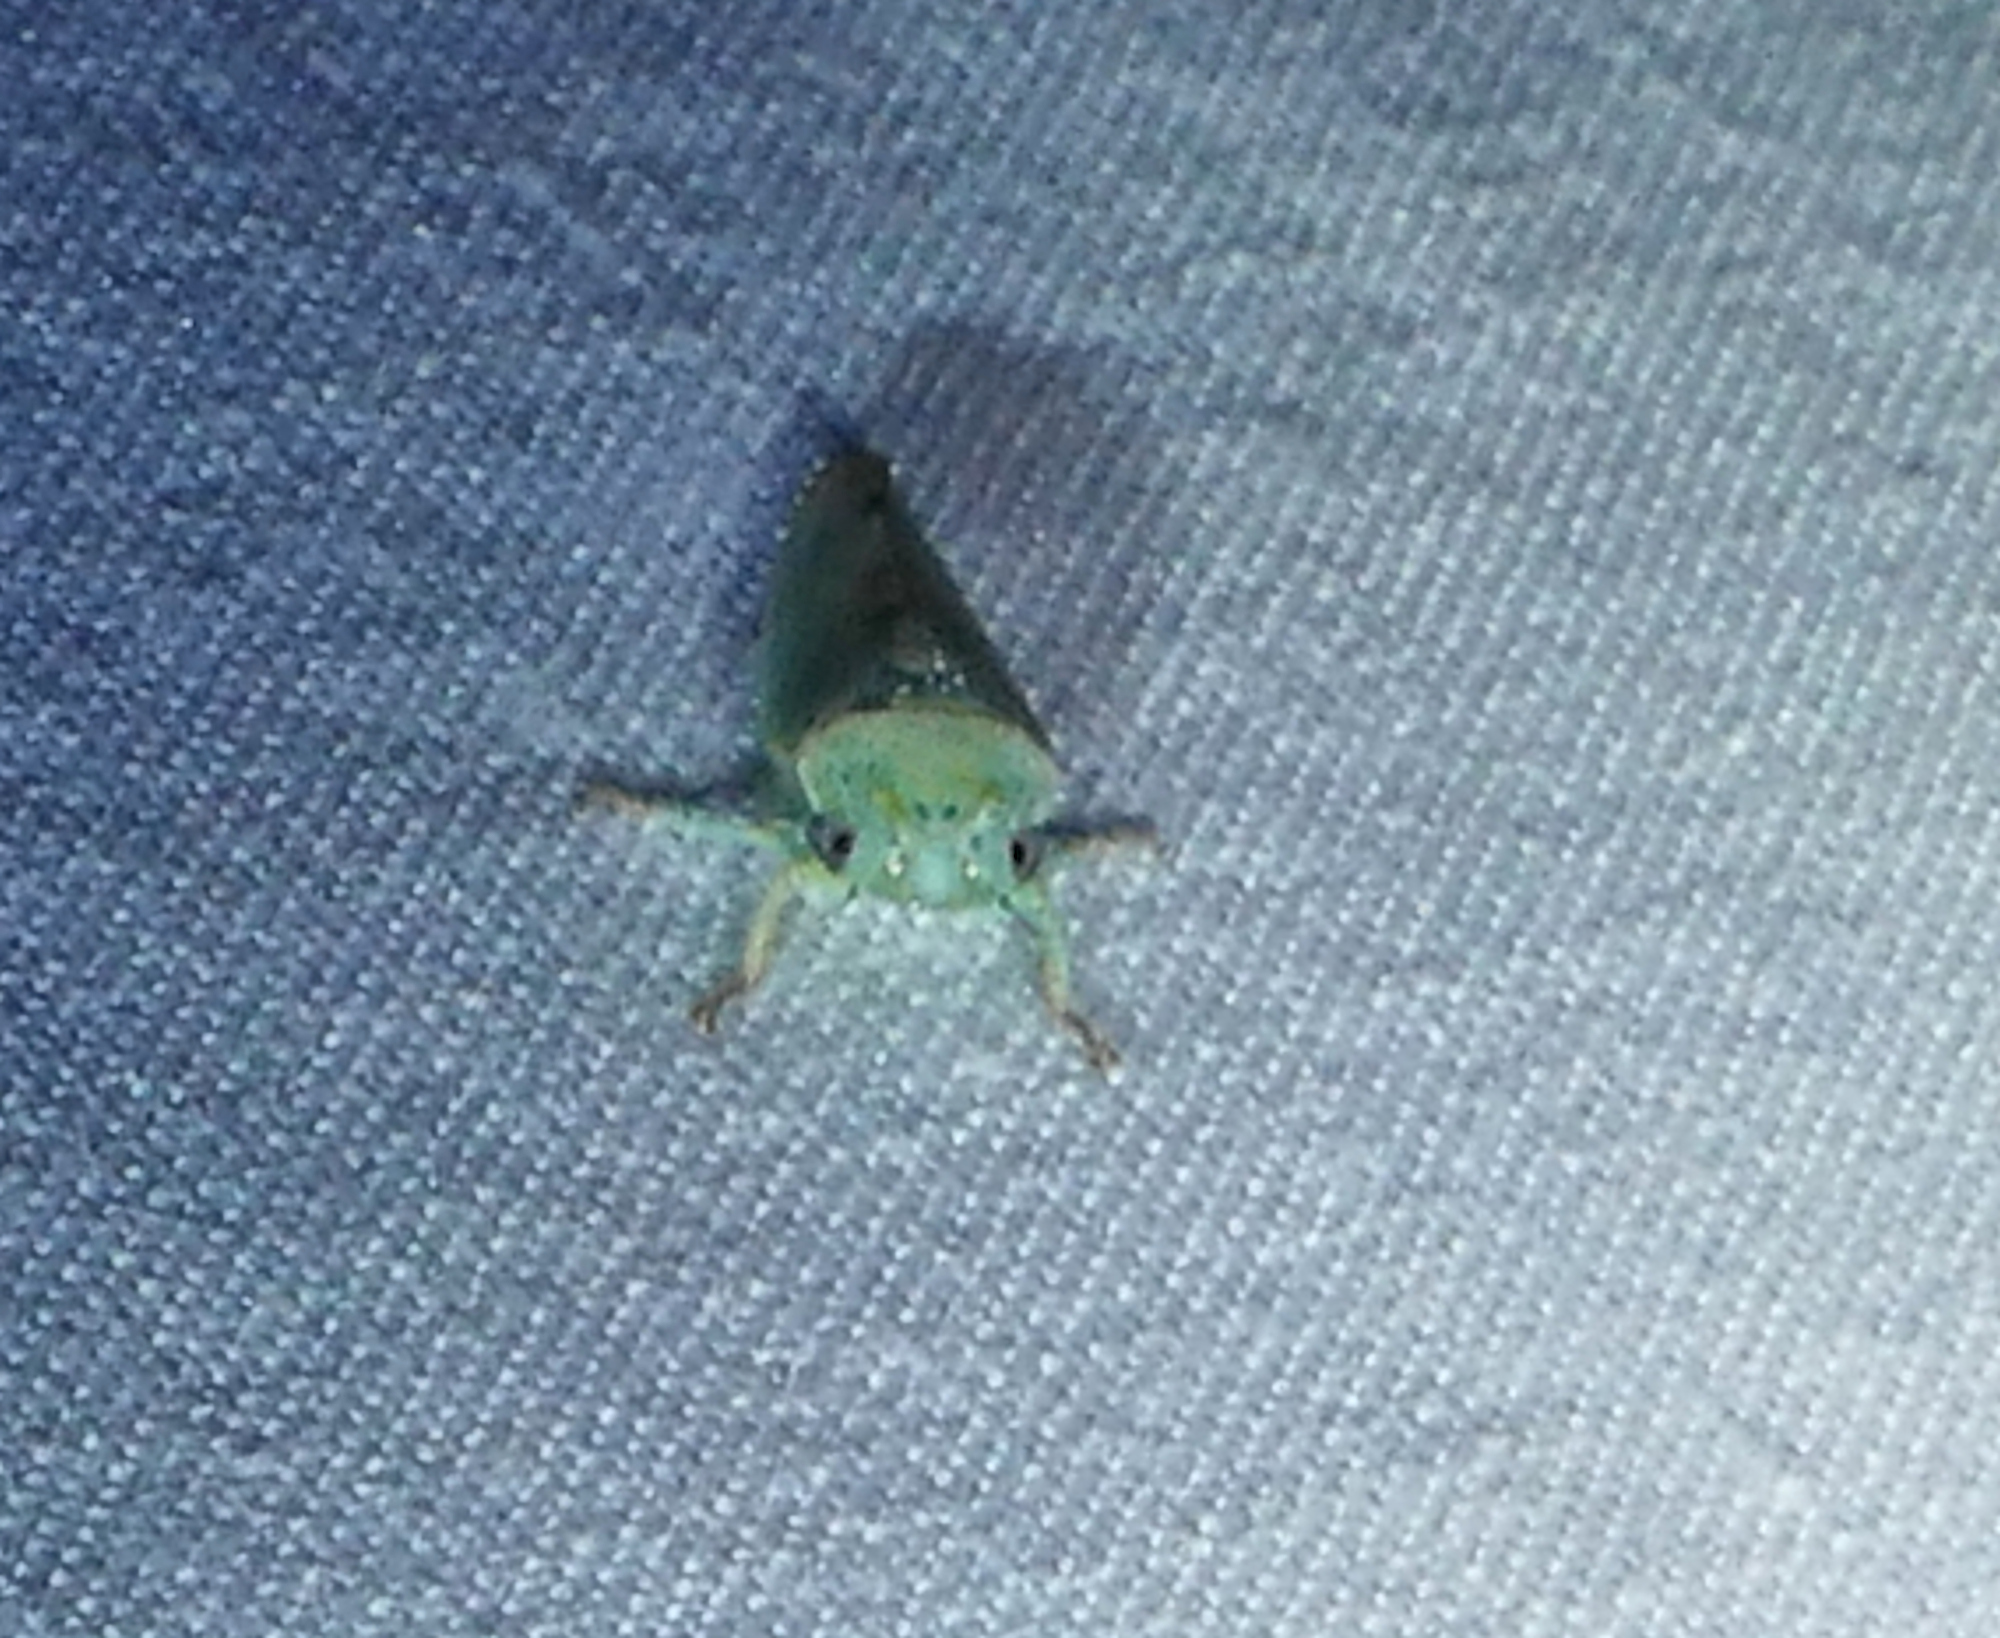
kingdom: Animalia
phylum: Arthropoda
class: Insecta
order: Hemiptera
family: Cicadellidae
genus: Hamana
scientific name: Hamana dictitoria
